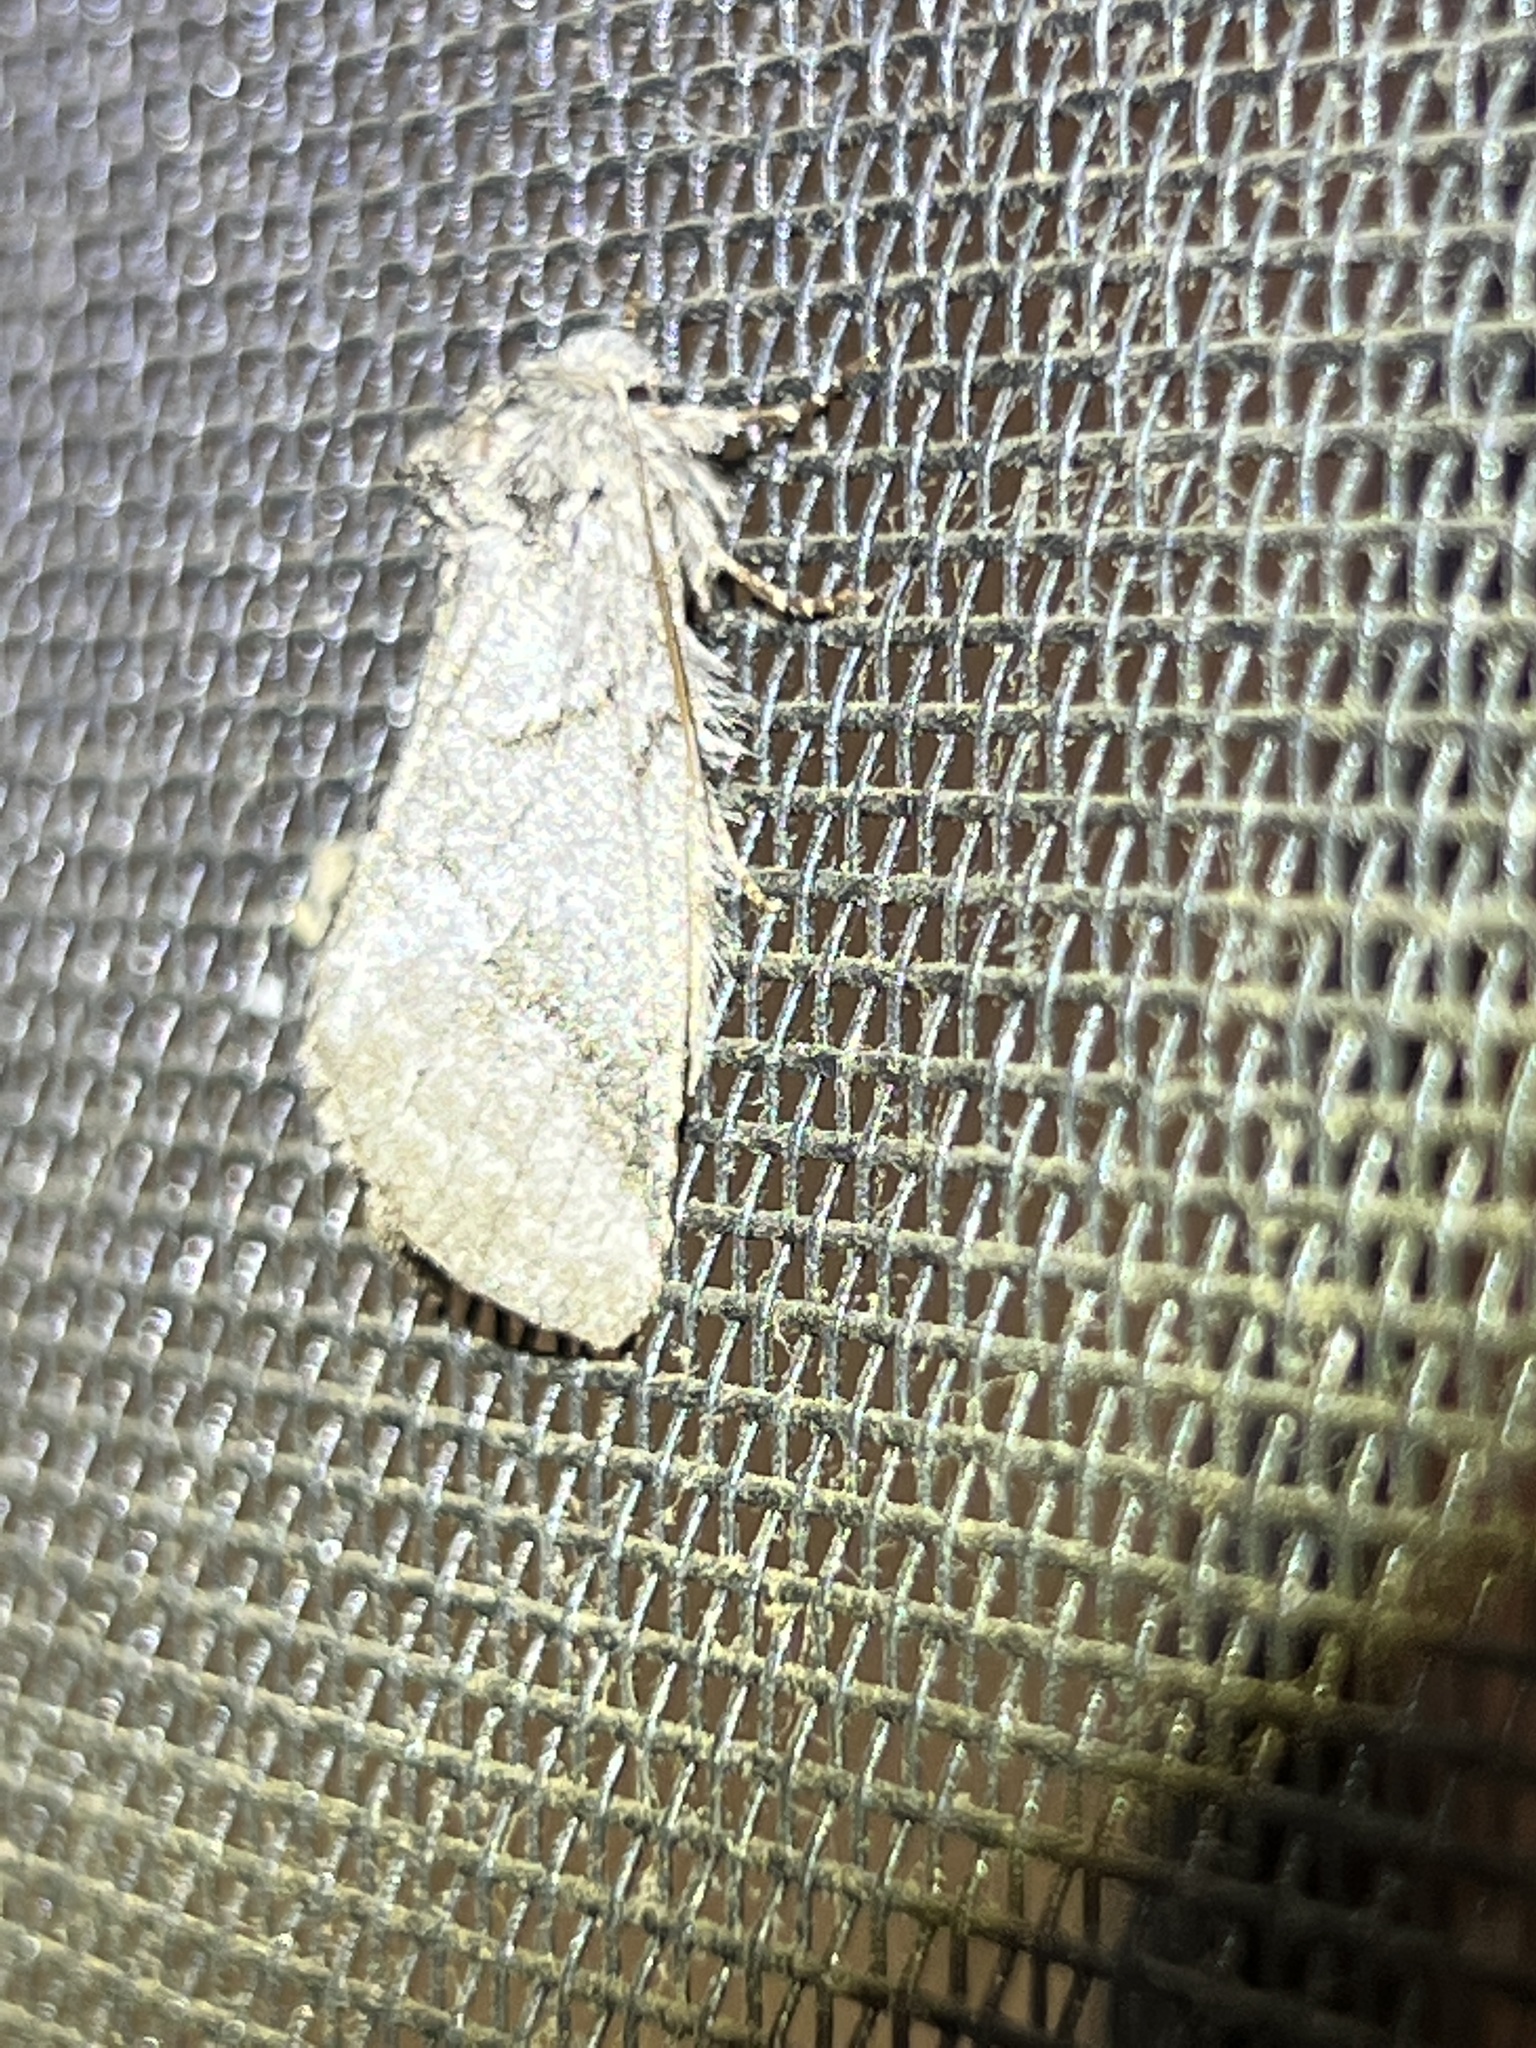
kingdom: Animalia
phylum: Arthropoda
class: Insecta
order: Lepidoptera
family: Notodontidae
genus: Lochmaeus
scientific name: Lochmaeus bilineata
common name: Double-lined prominent
